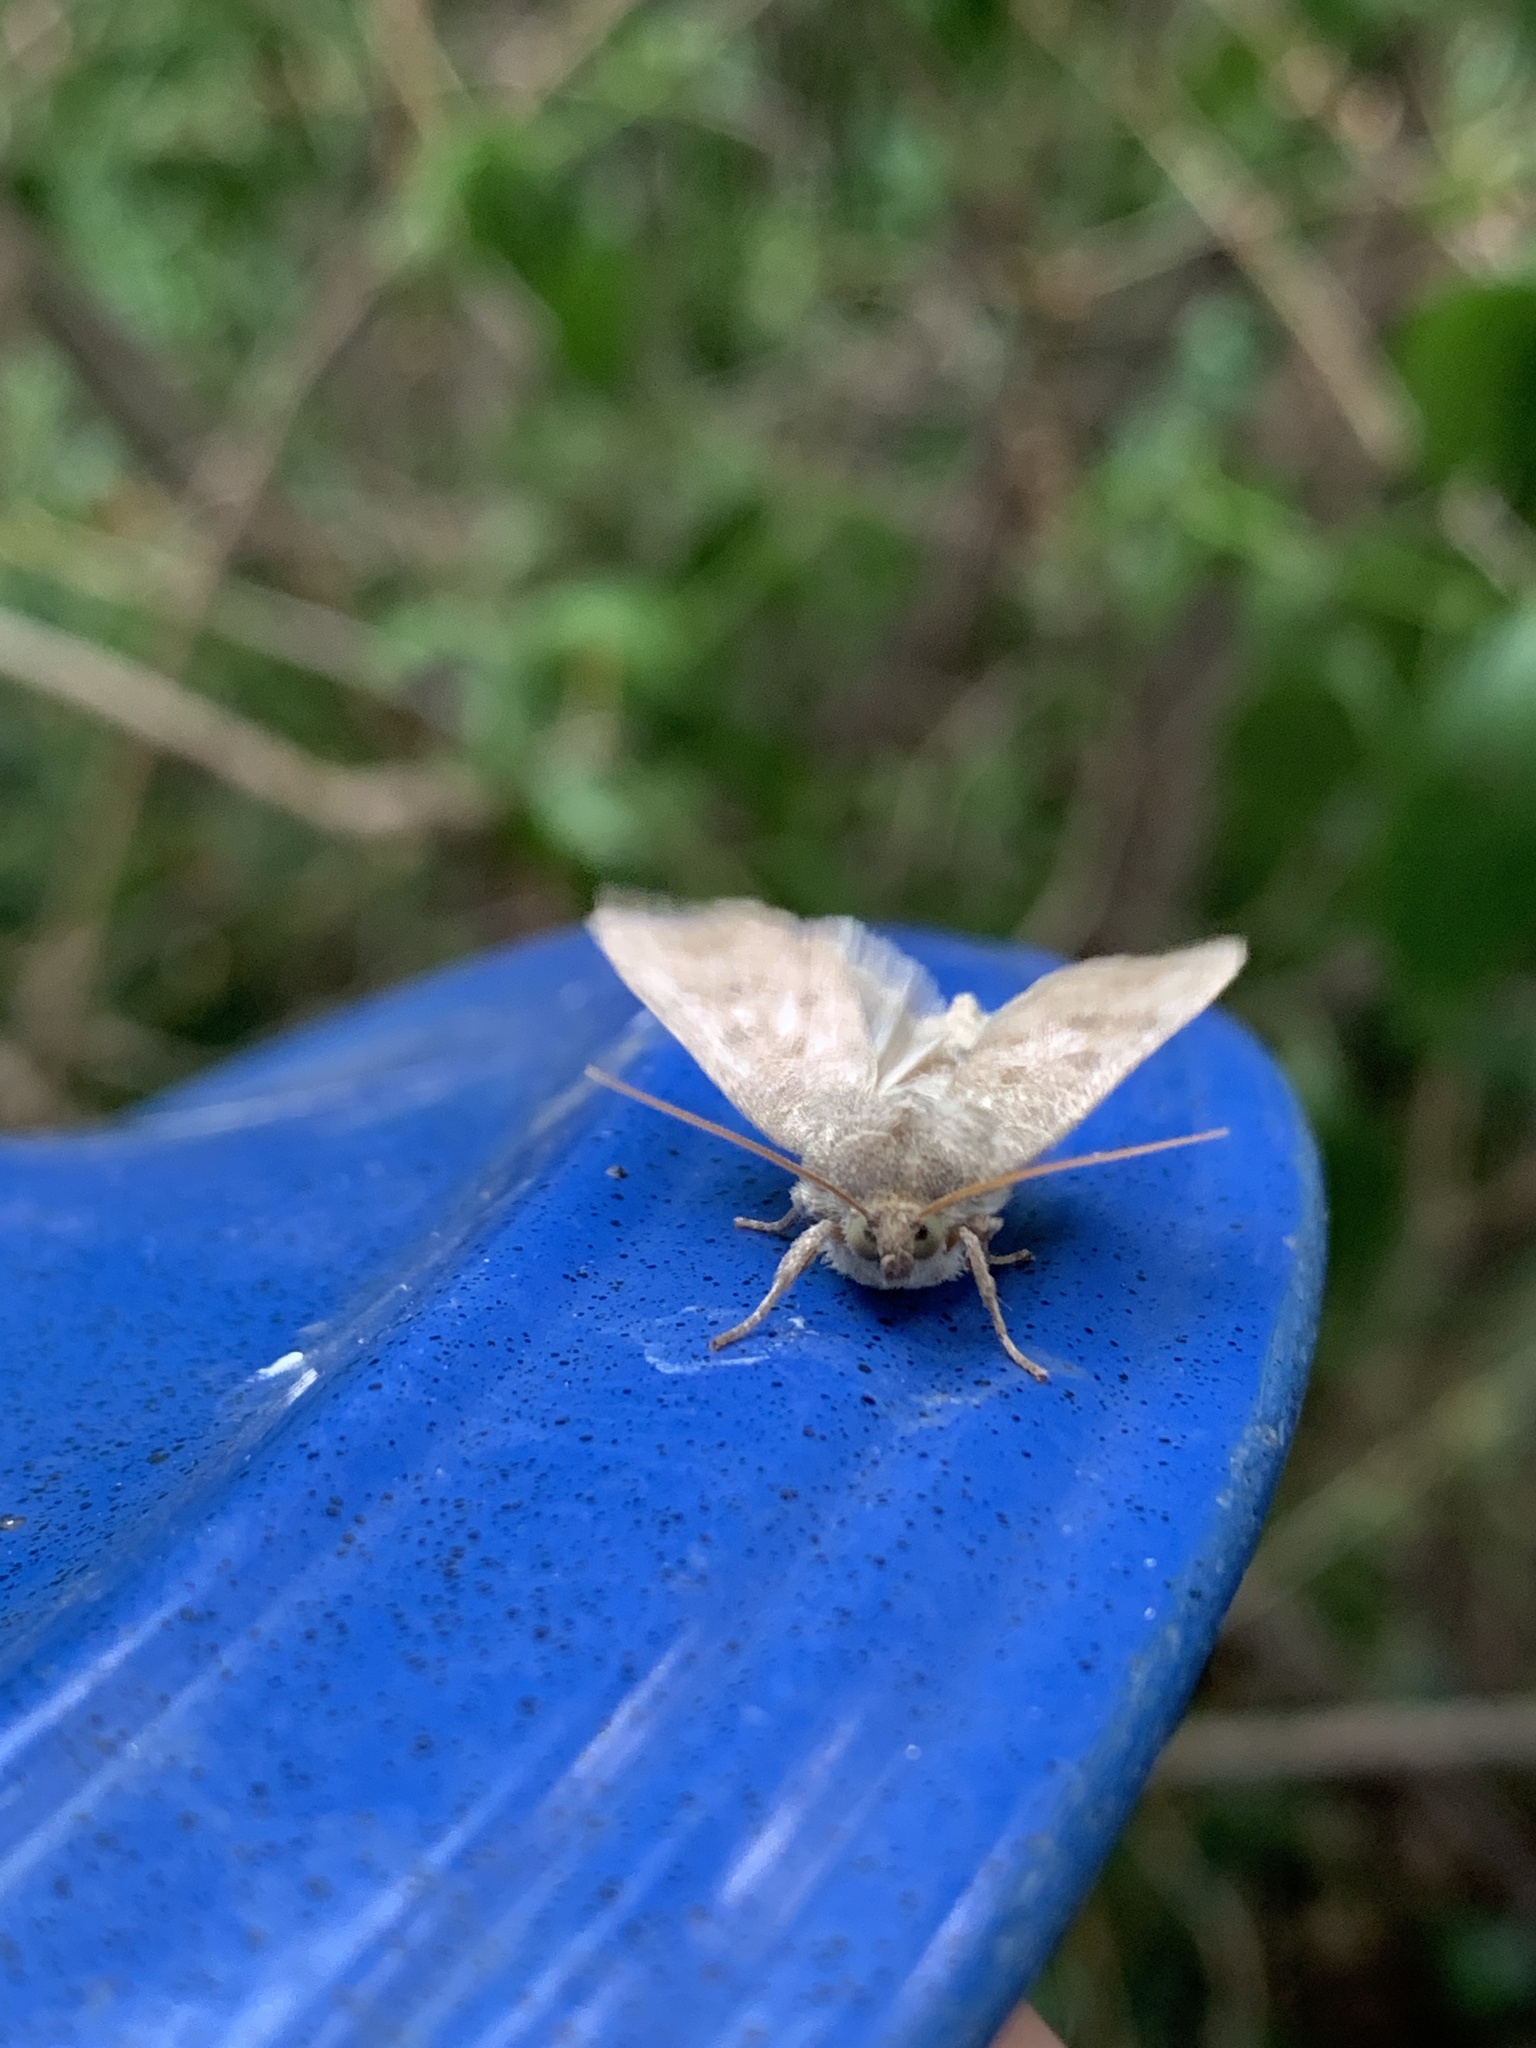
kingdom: Animalia
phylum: Arthropoda
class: Insecta
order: Lepidoptera
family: Noctuidae
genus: Ipimorpha
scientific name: Ipimorpha pleonectusa
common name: Even-lined sallow
